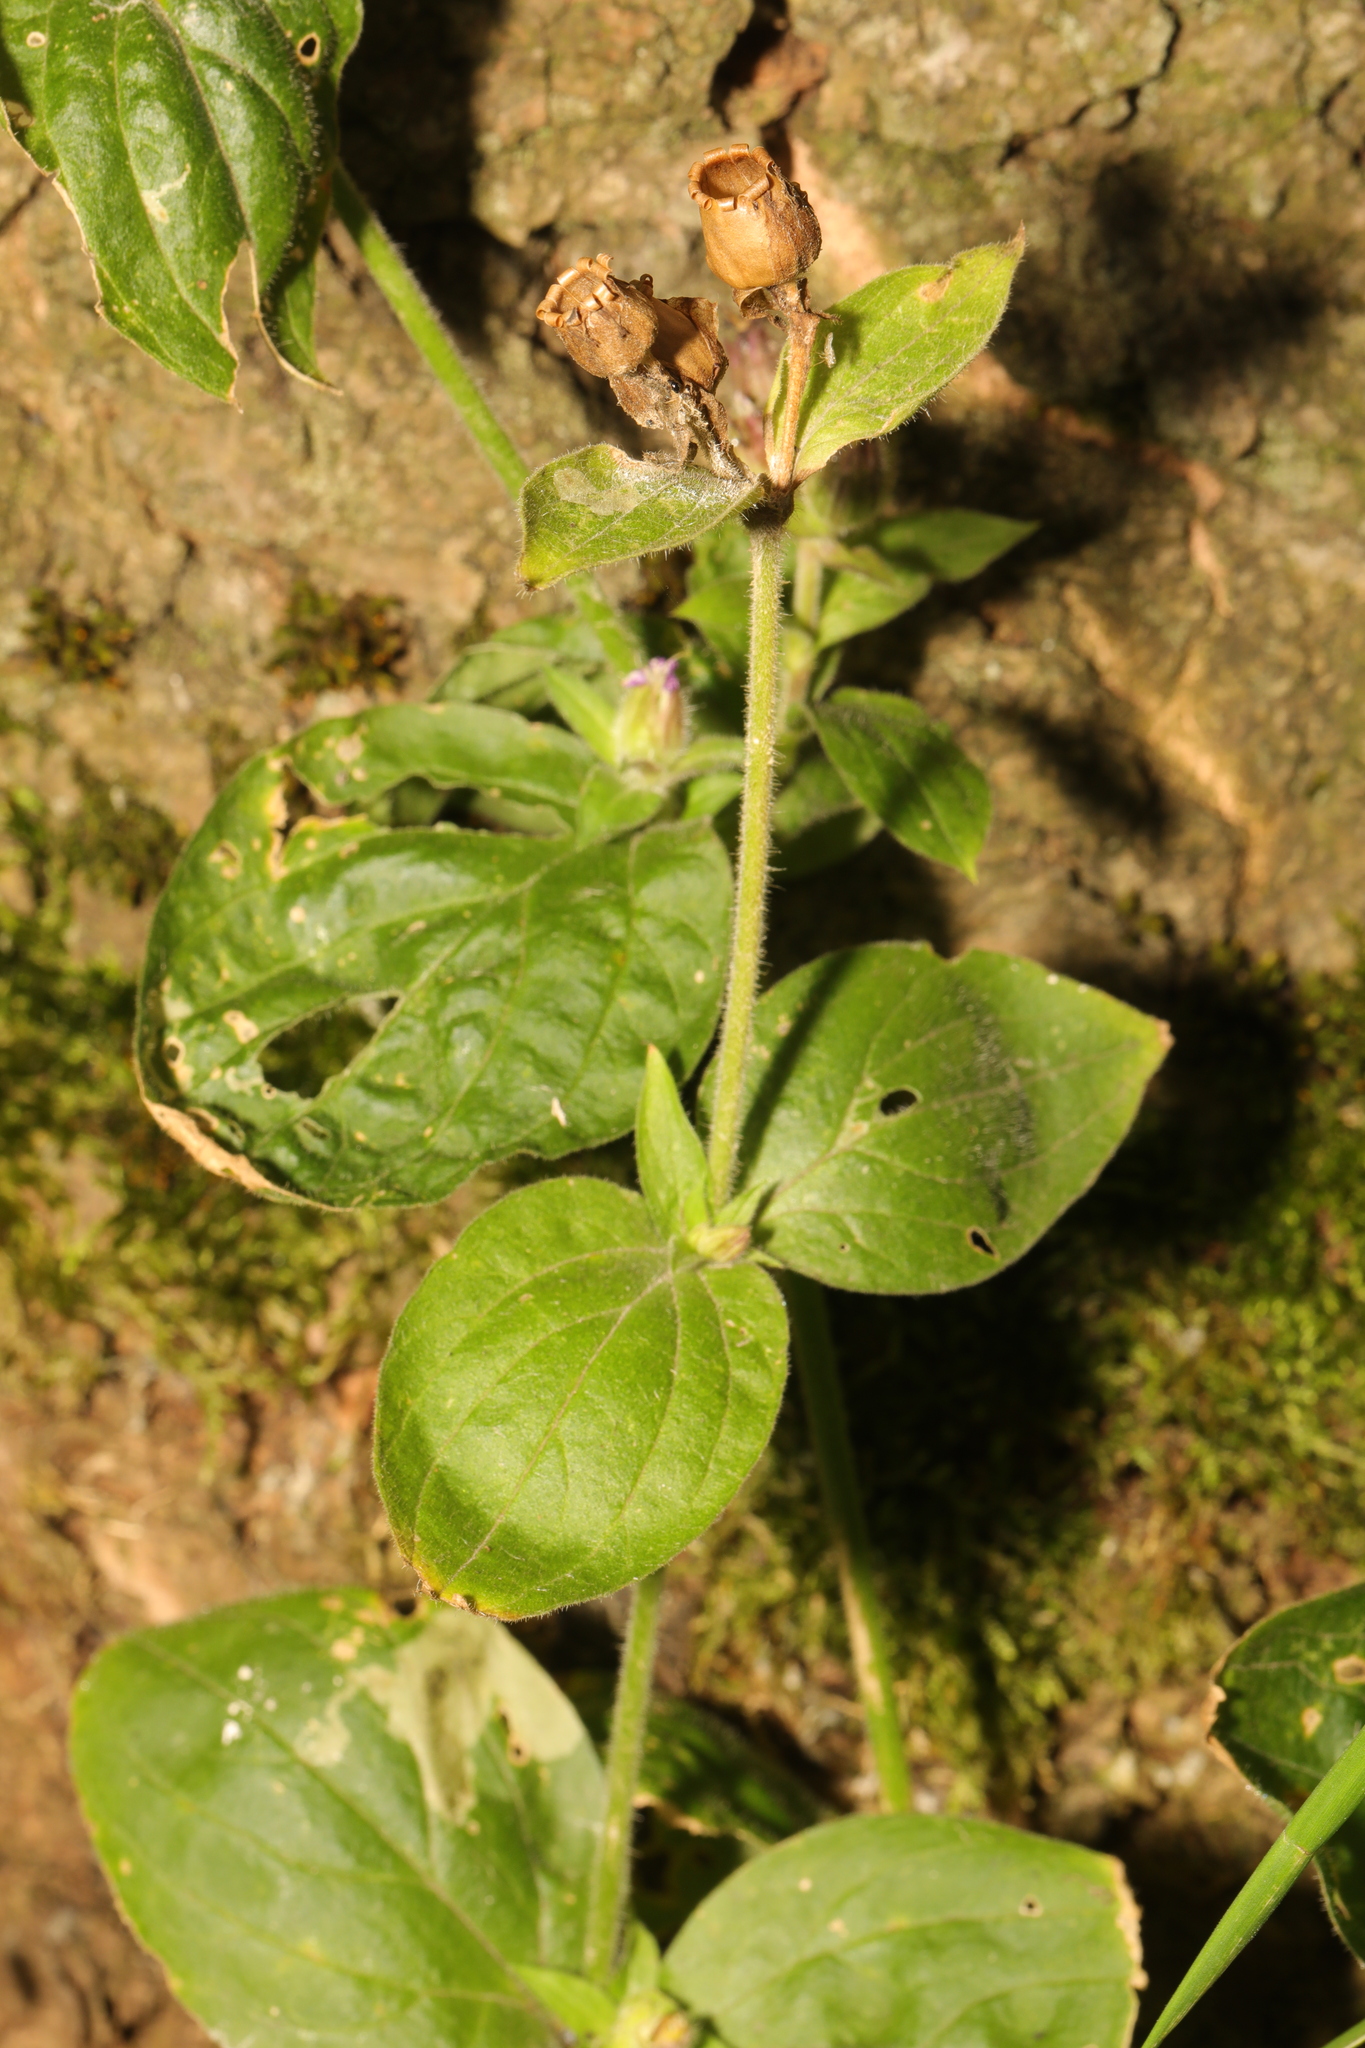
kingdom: Plantae
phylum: Tracheophyta
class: Magnoliopsida
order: Caryophyllales
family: Caryophyllaceae
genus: Silene
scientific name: Silene dioica
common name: Red campion
